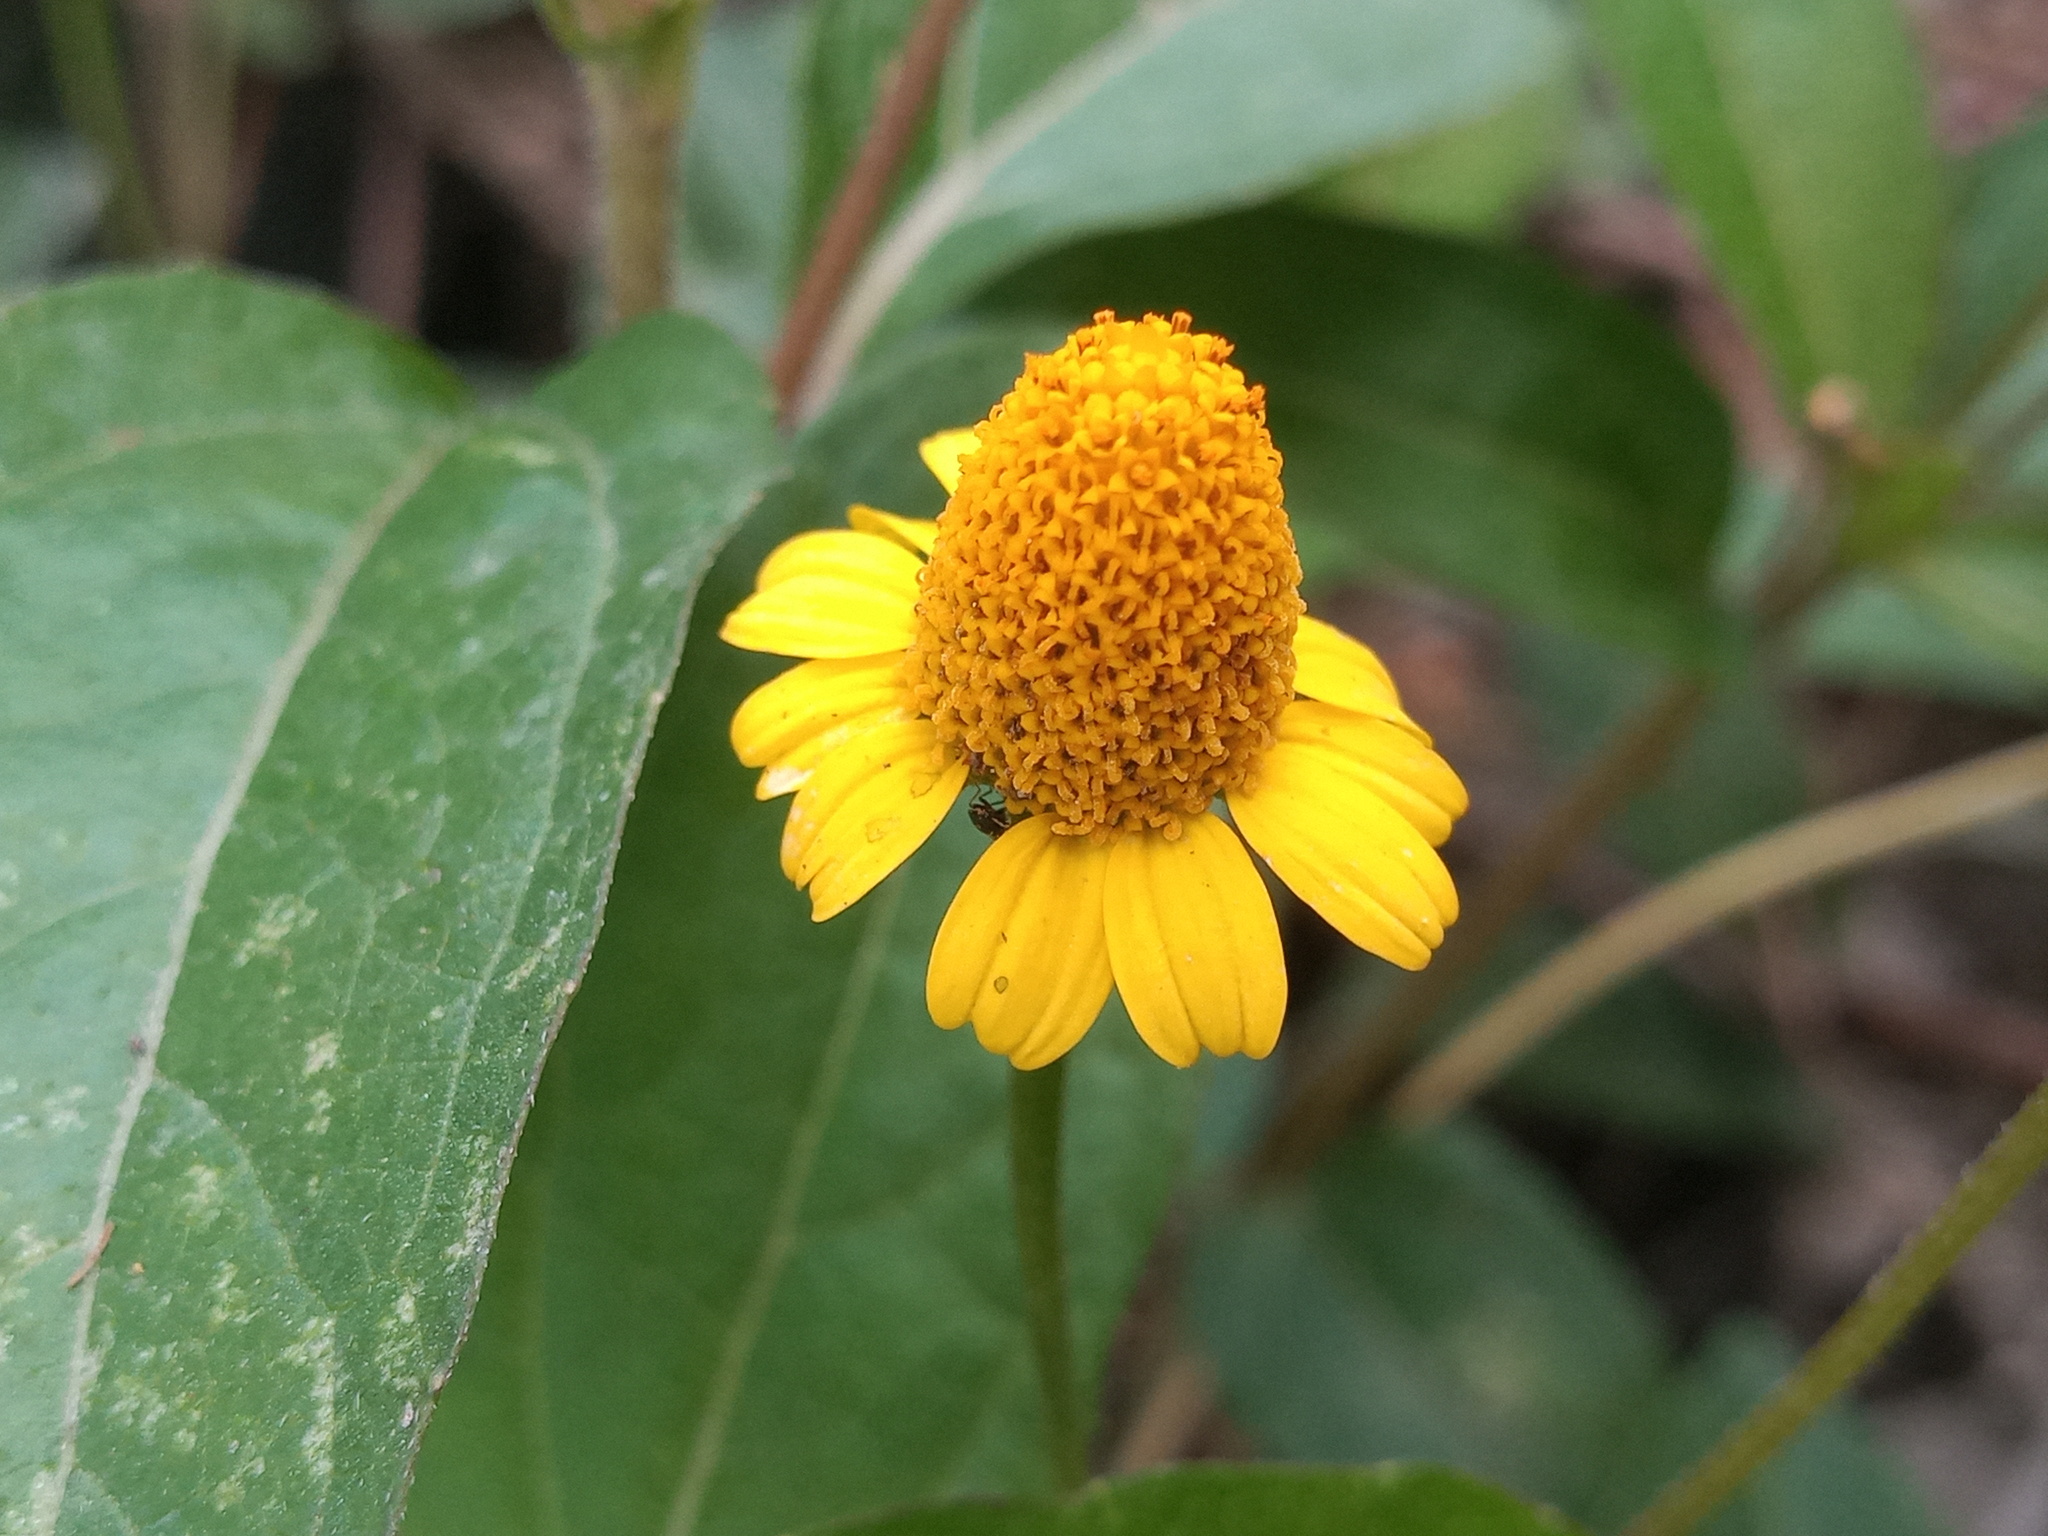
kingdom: Plantae
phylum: Tracheophyta
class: Magnoliopsida
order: Asterales
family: Asteraceae
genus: Acmella
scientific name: Acmella repens
